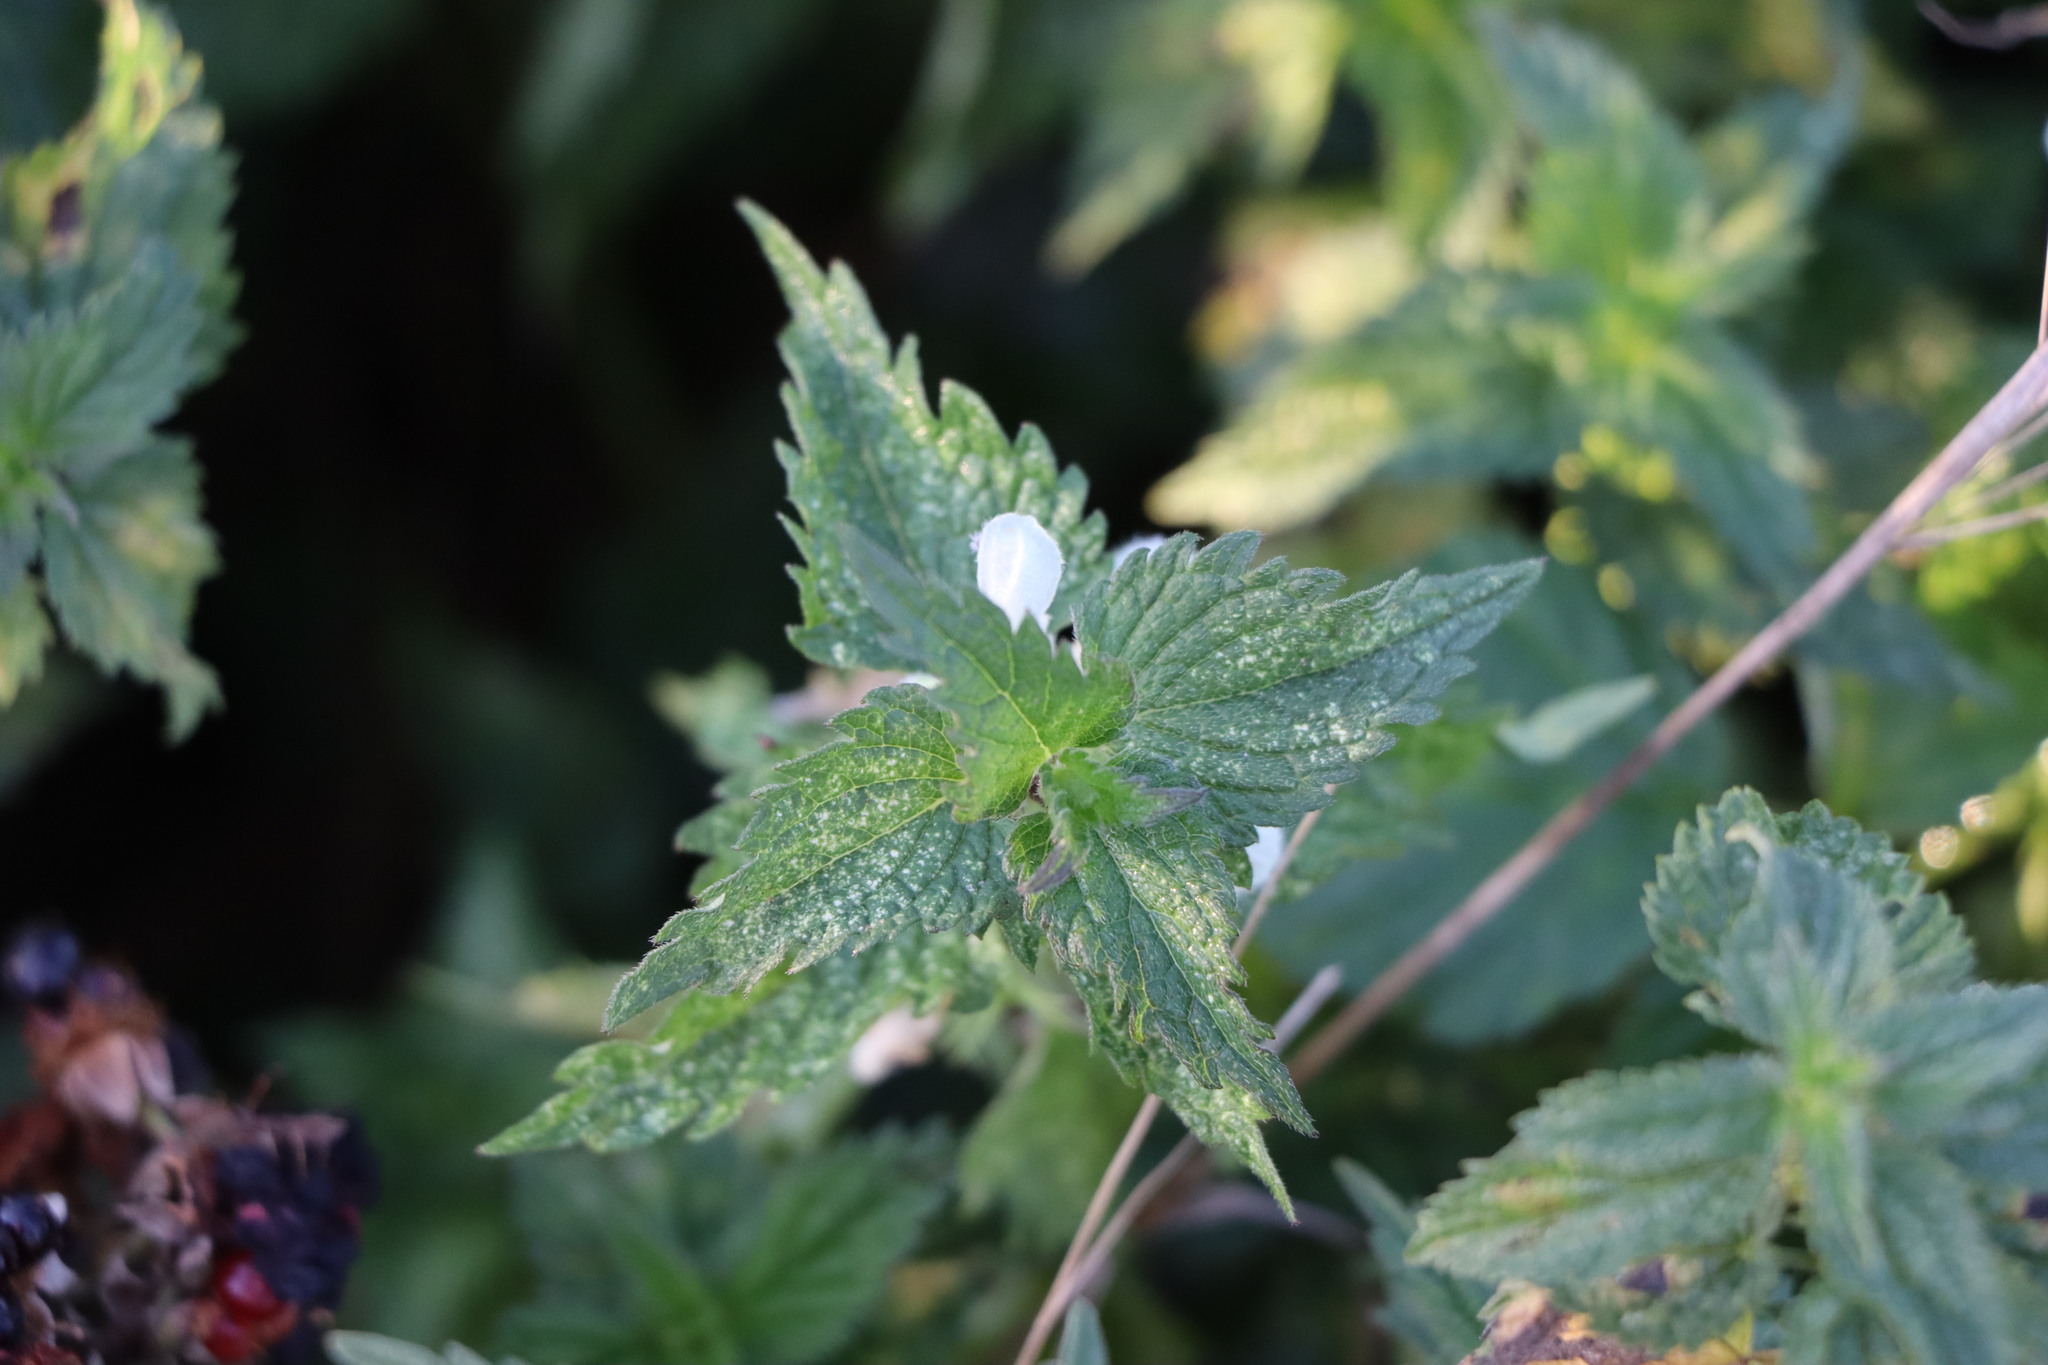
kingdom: Plantae
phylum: Tracheophyta
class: Magnoliopsida
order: Lamiales
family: Lamiaceae
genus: Lamium
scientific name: Lamium album
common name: White dead-nettle
